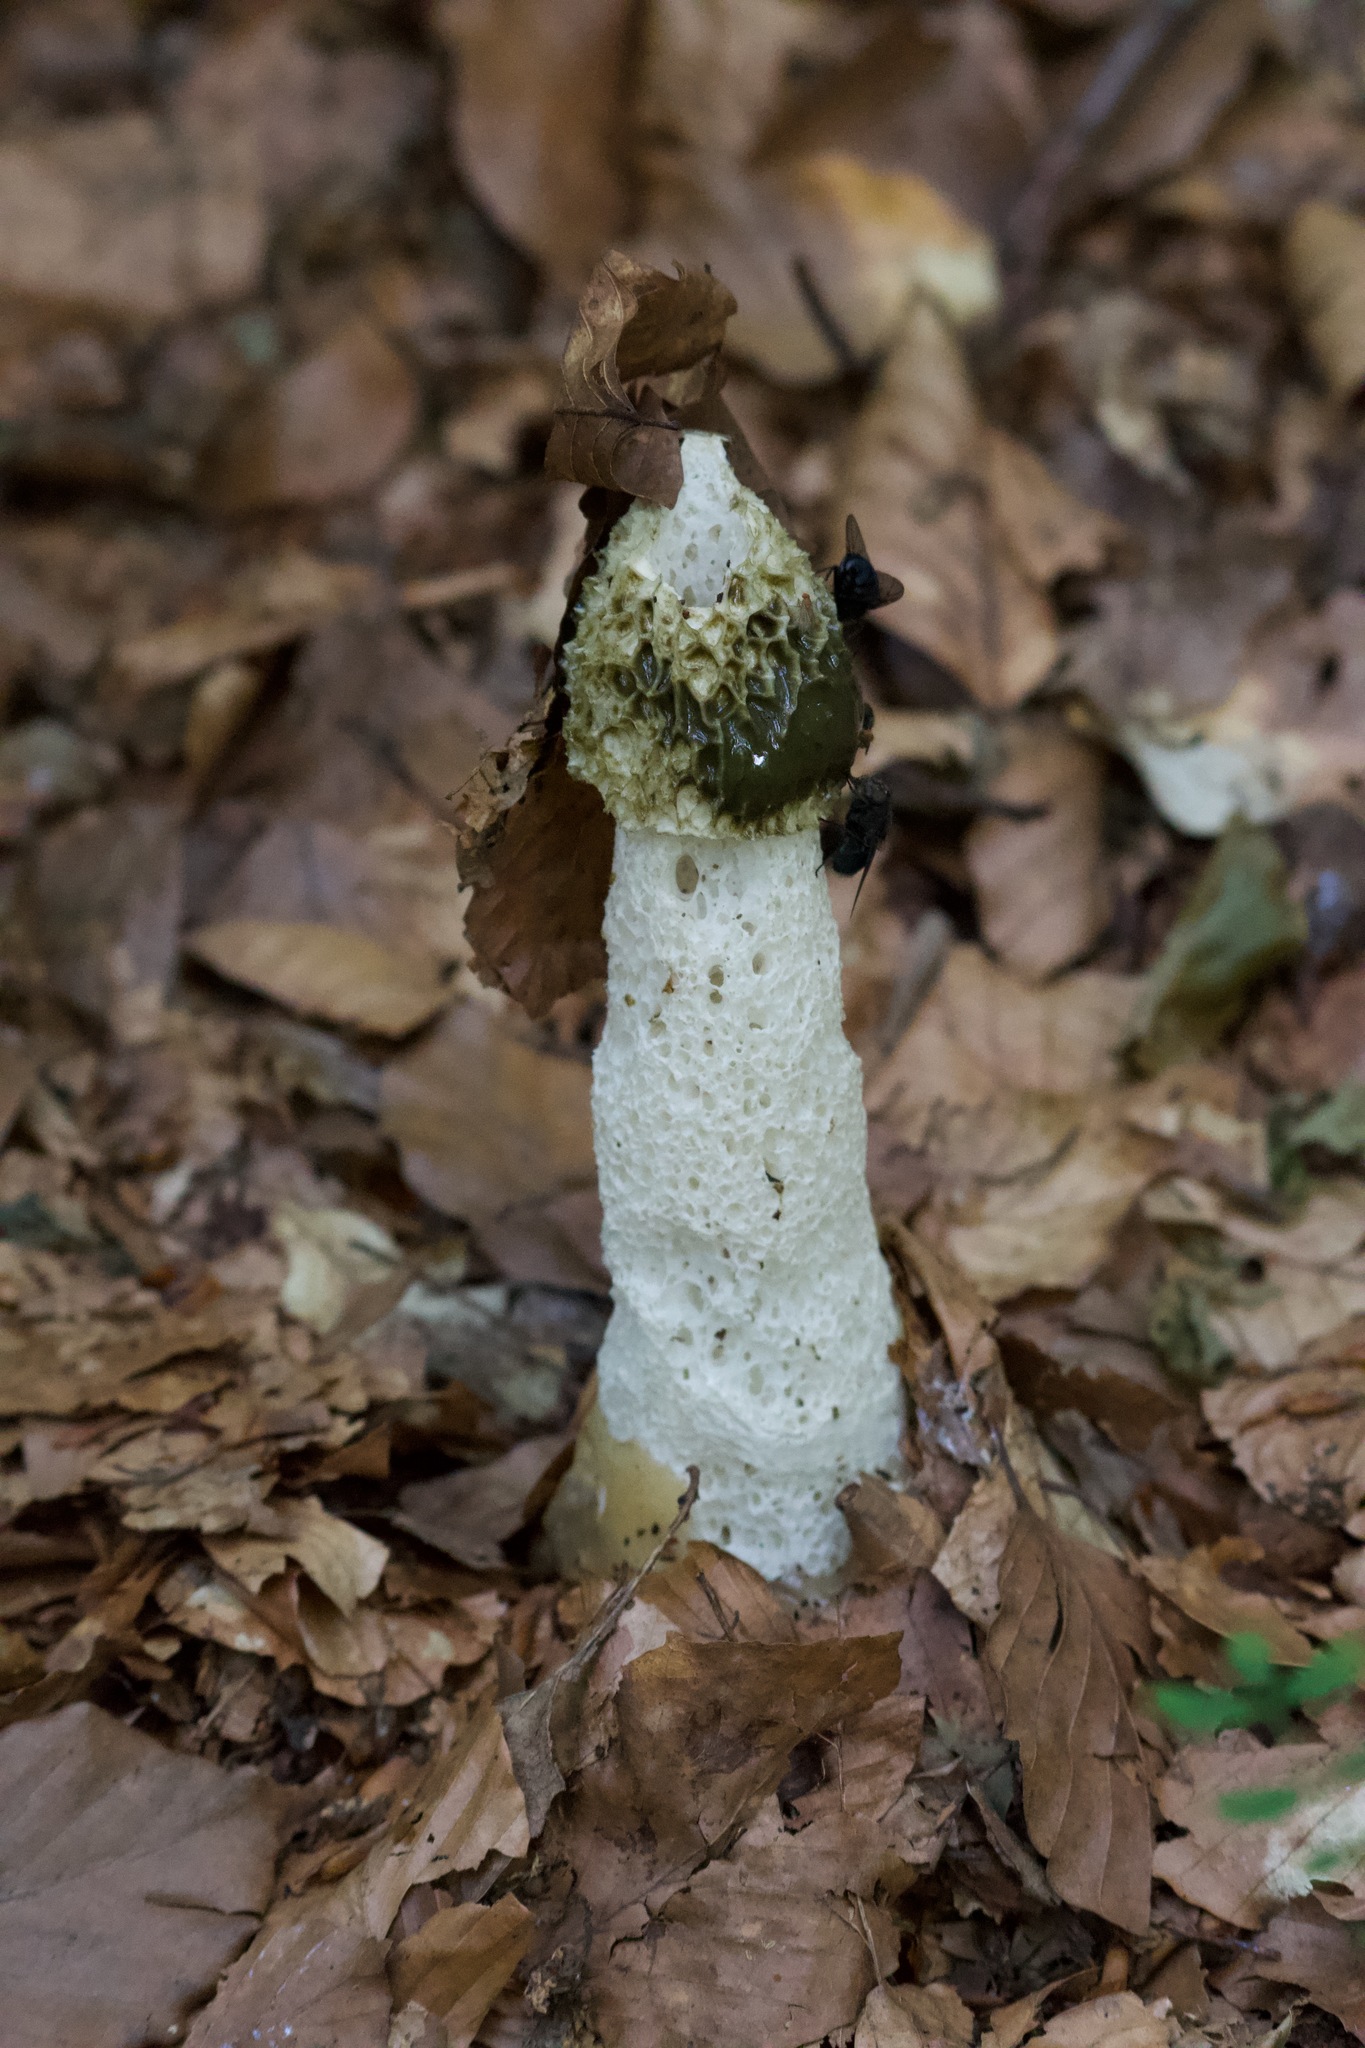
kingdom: Fungi
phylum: Basidiomycota
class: Agaricomycetes
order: Phallales
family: Phallaceae
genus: Phallus
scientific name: Phallus impudicus
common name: Common stinkhorn
